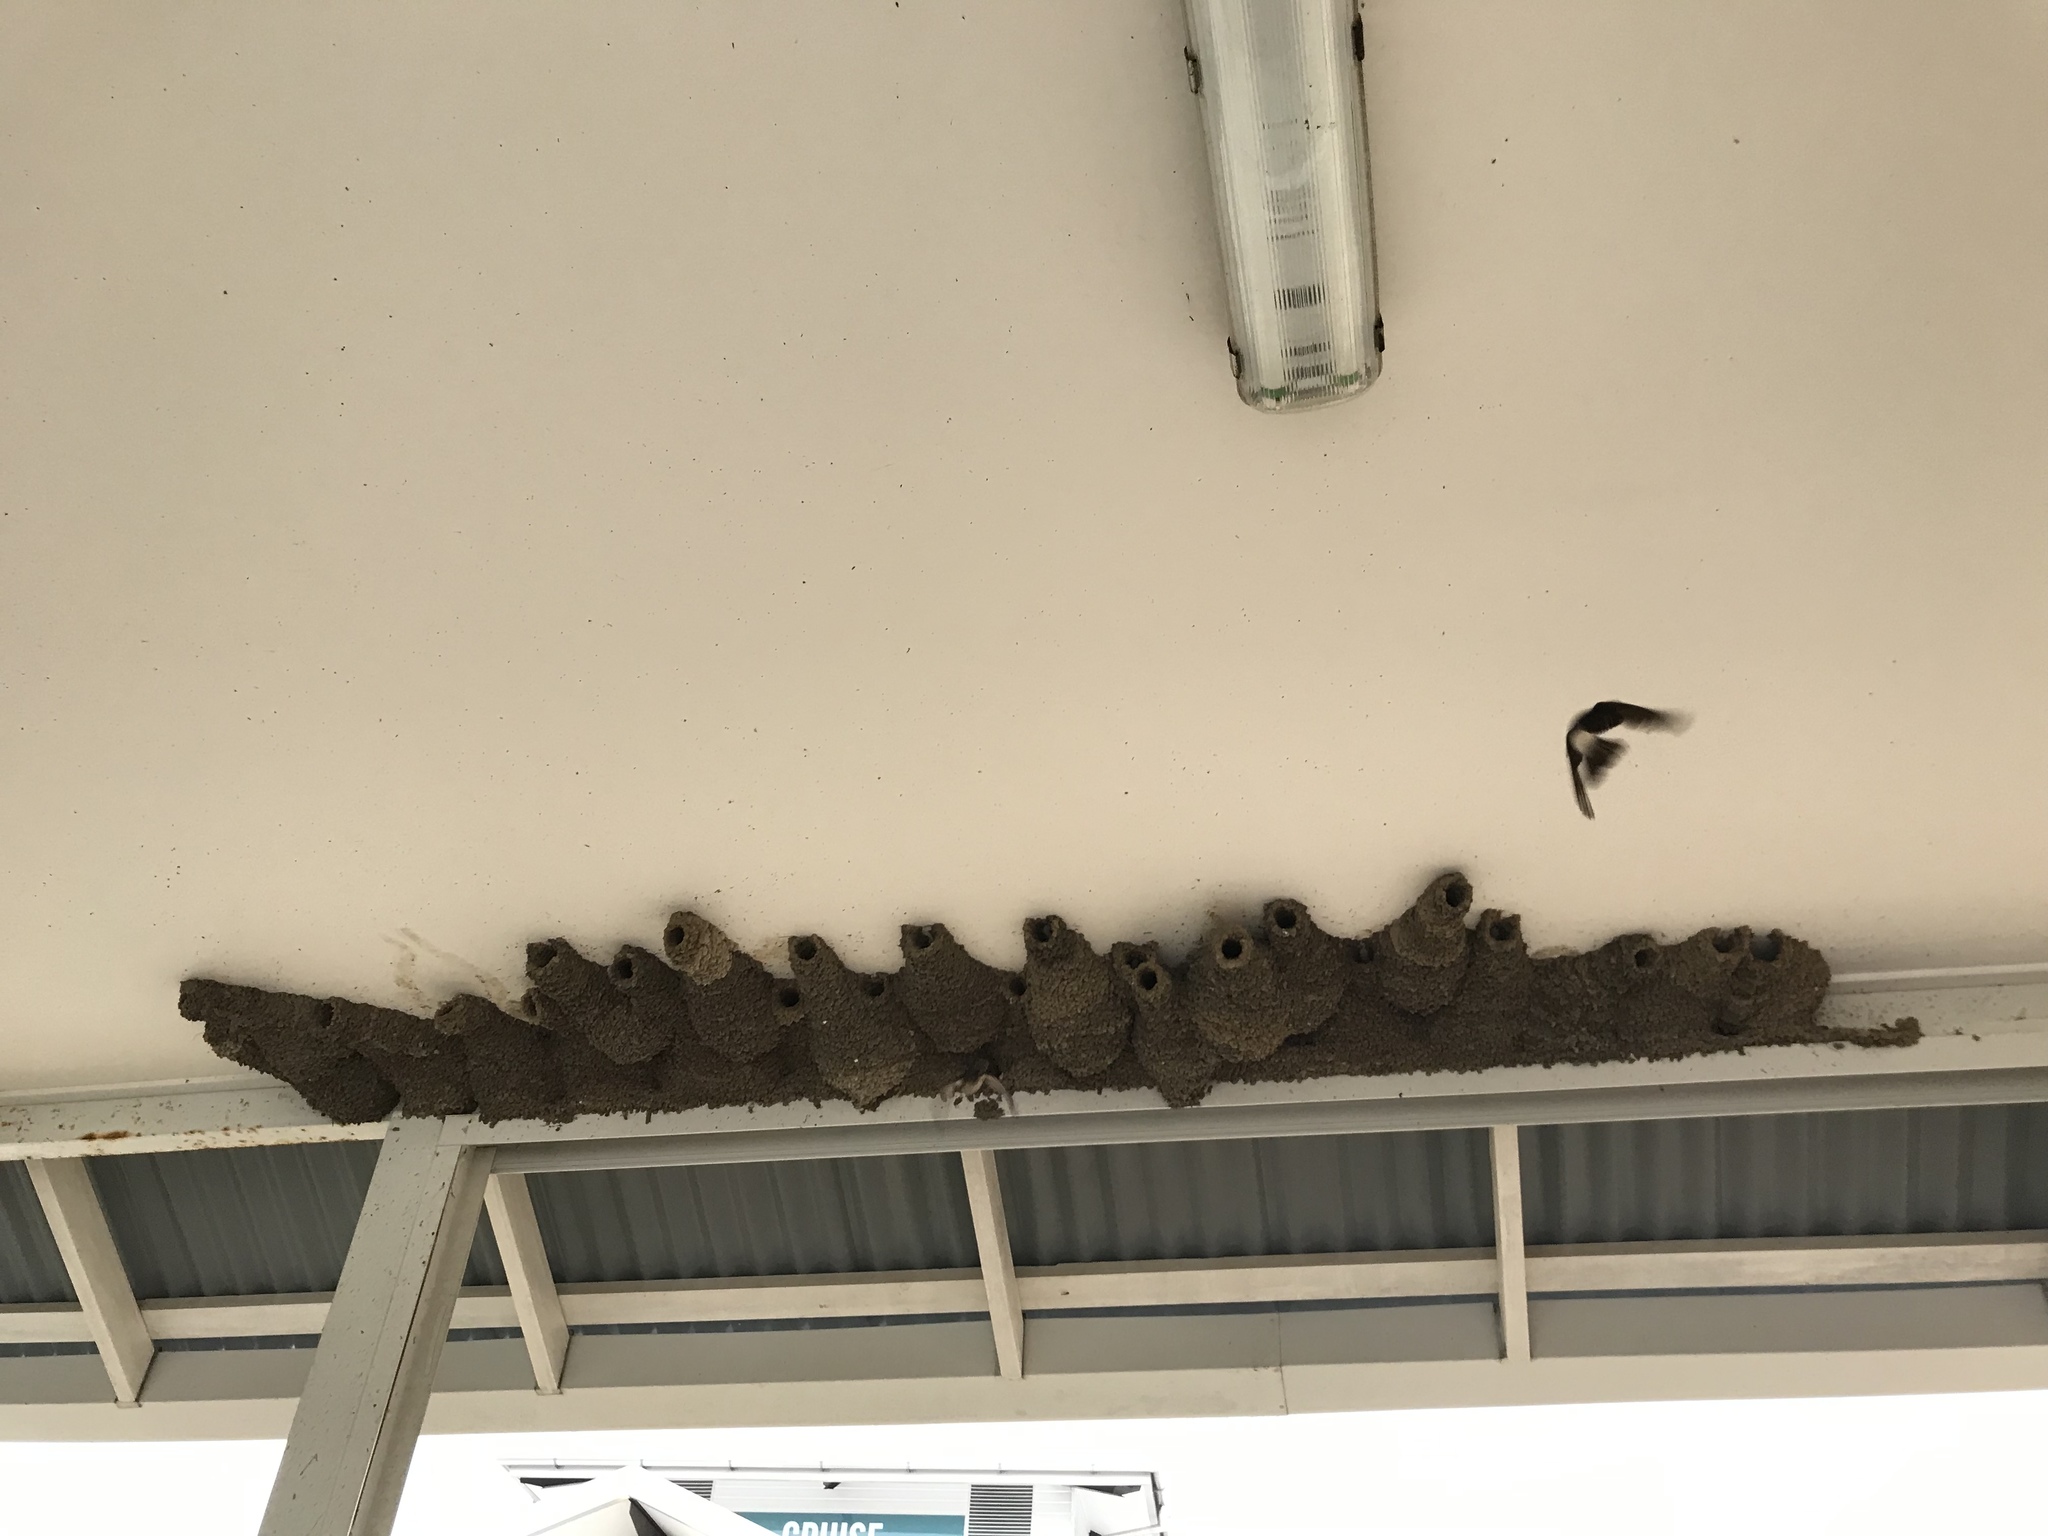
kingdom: Animalia
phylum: Chordata
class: Aves
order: Passeriformes
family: Hirundinidae
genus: Petrochelidon
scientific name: Petrochelidon ariel
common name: Fairy martin
